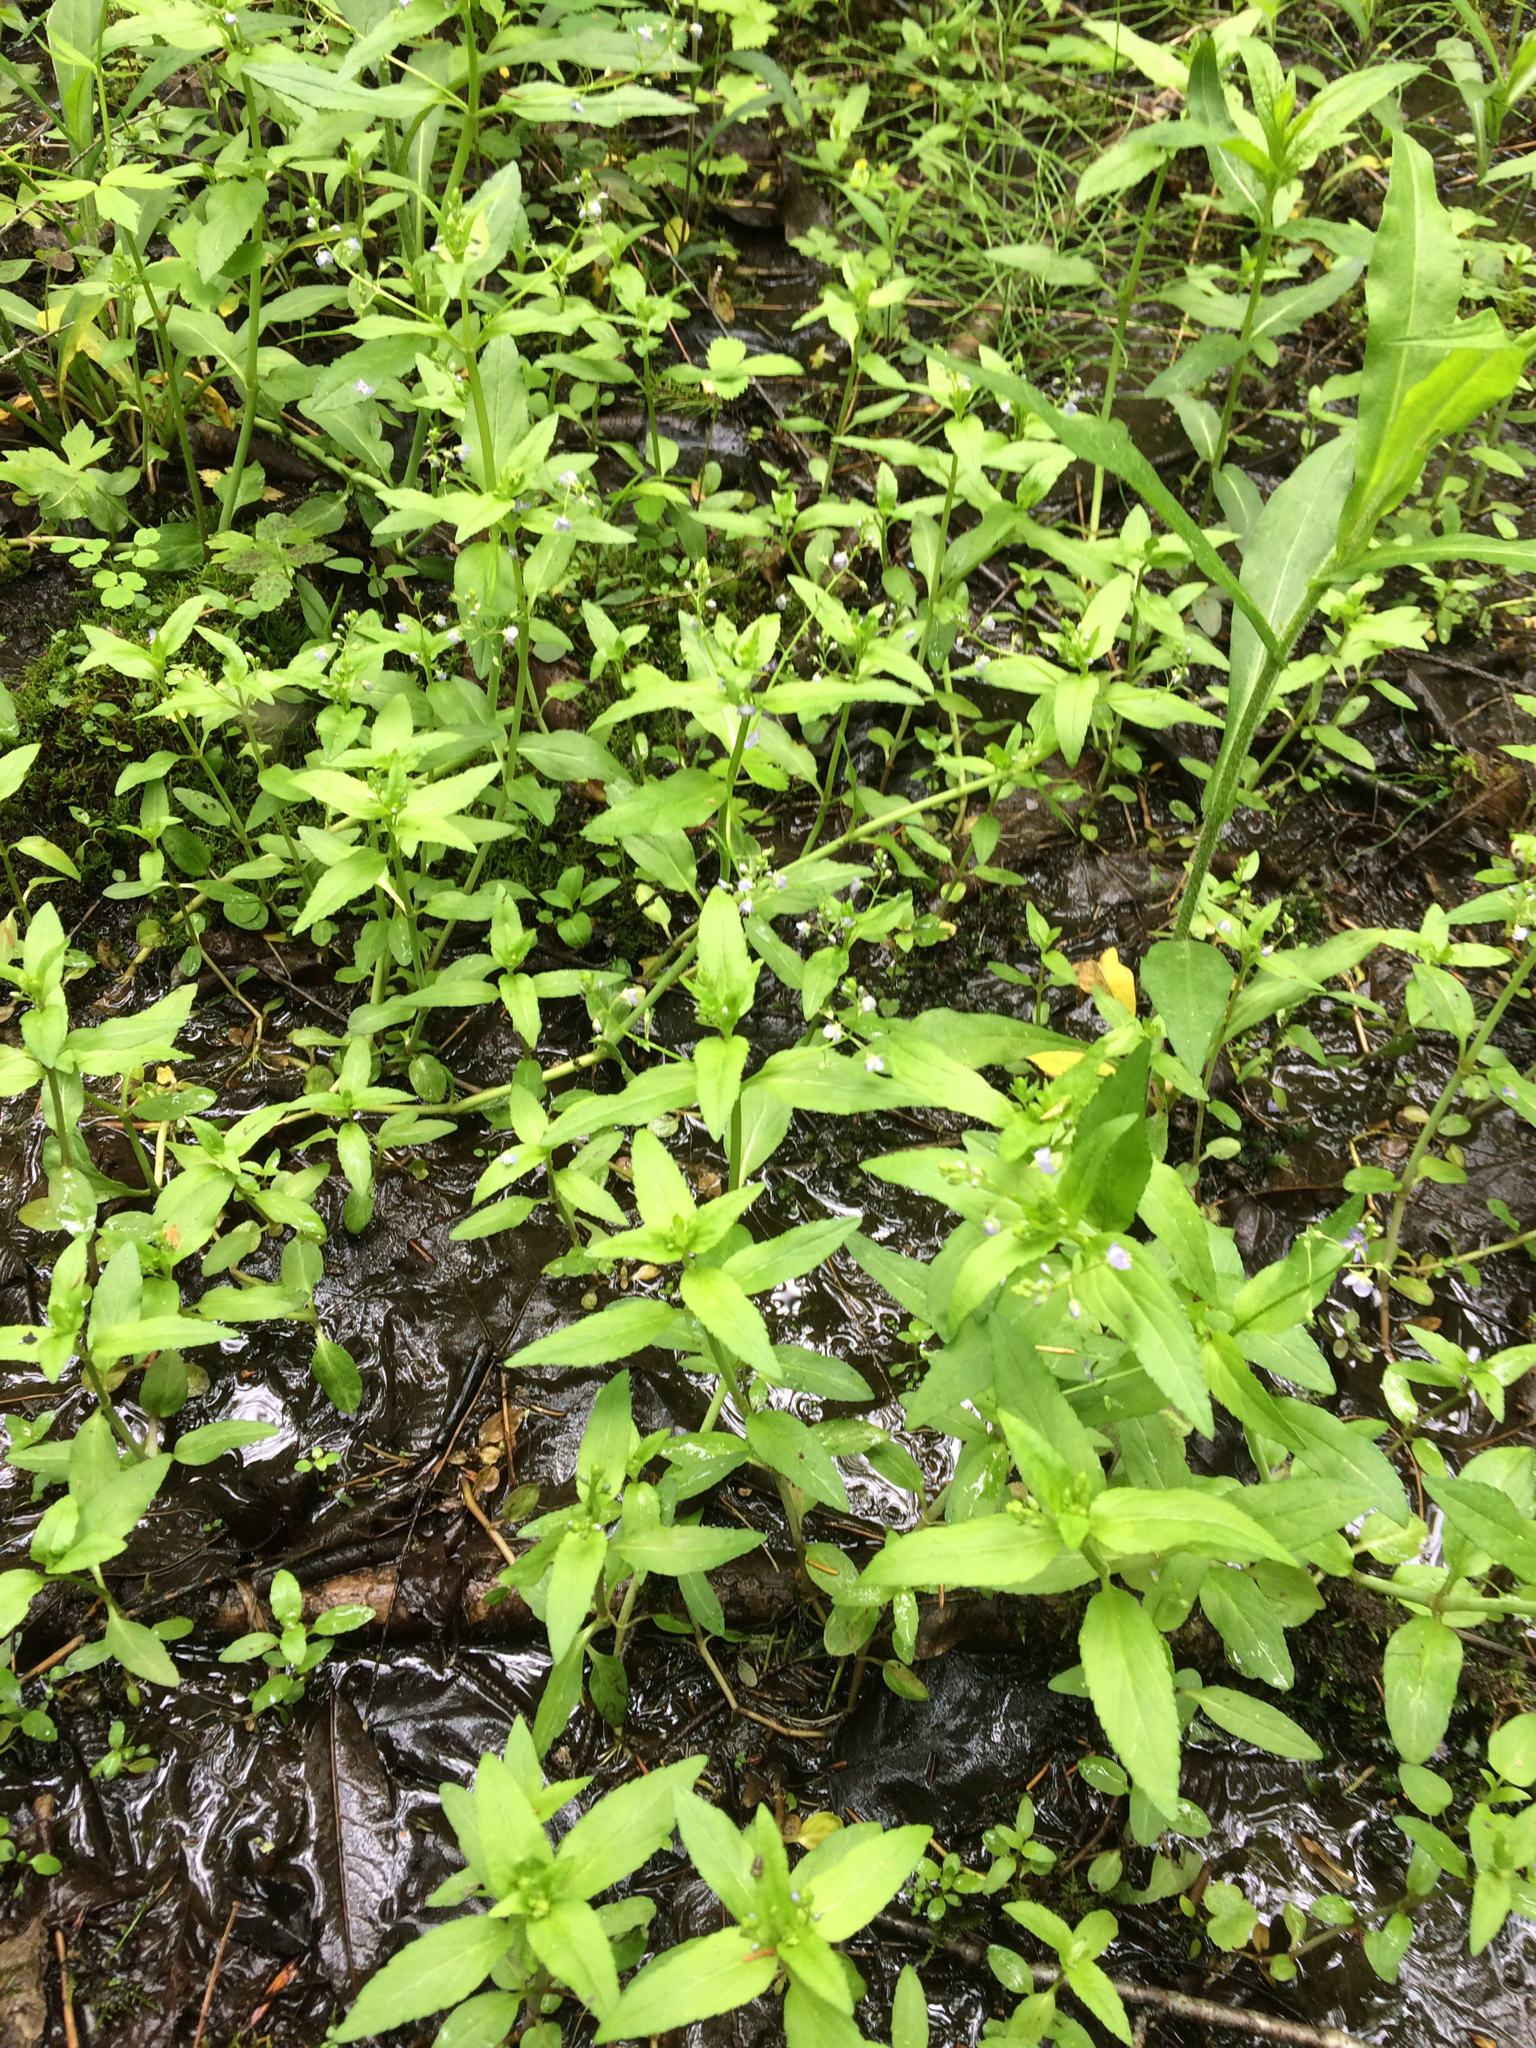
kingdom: Plantae
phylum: Tracheophyta
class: Magnoliopsida
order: Lamiales
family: Plantaginaceae
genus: Veronica
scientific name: Veronica americana
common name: American brooklime
